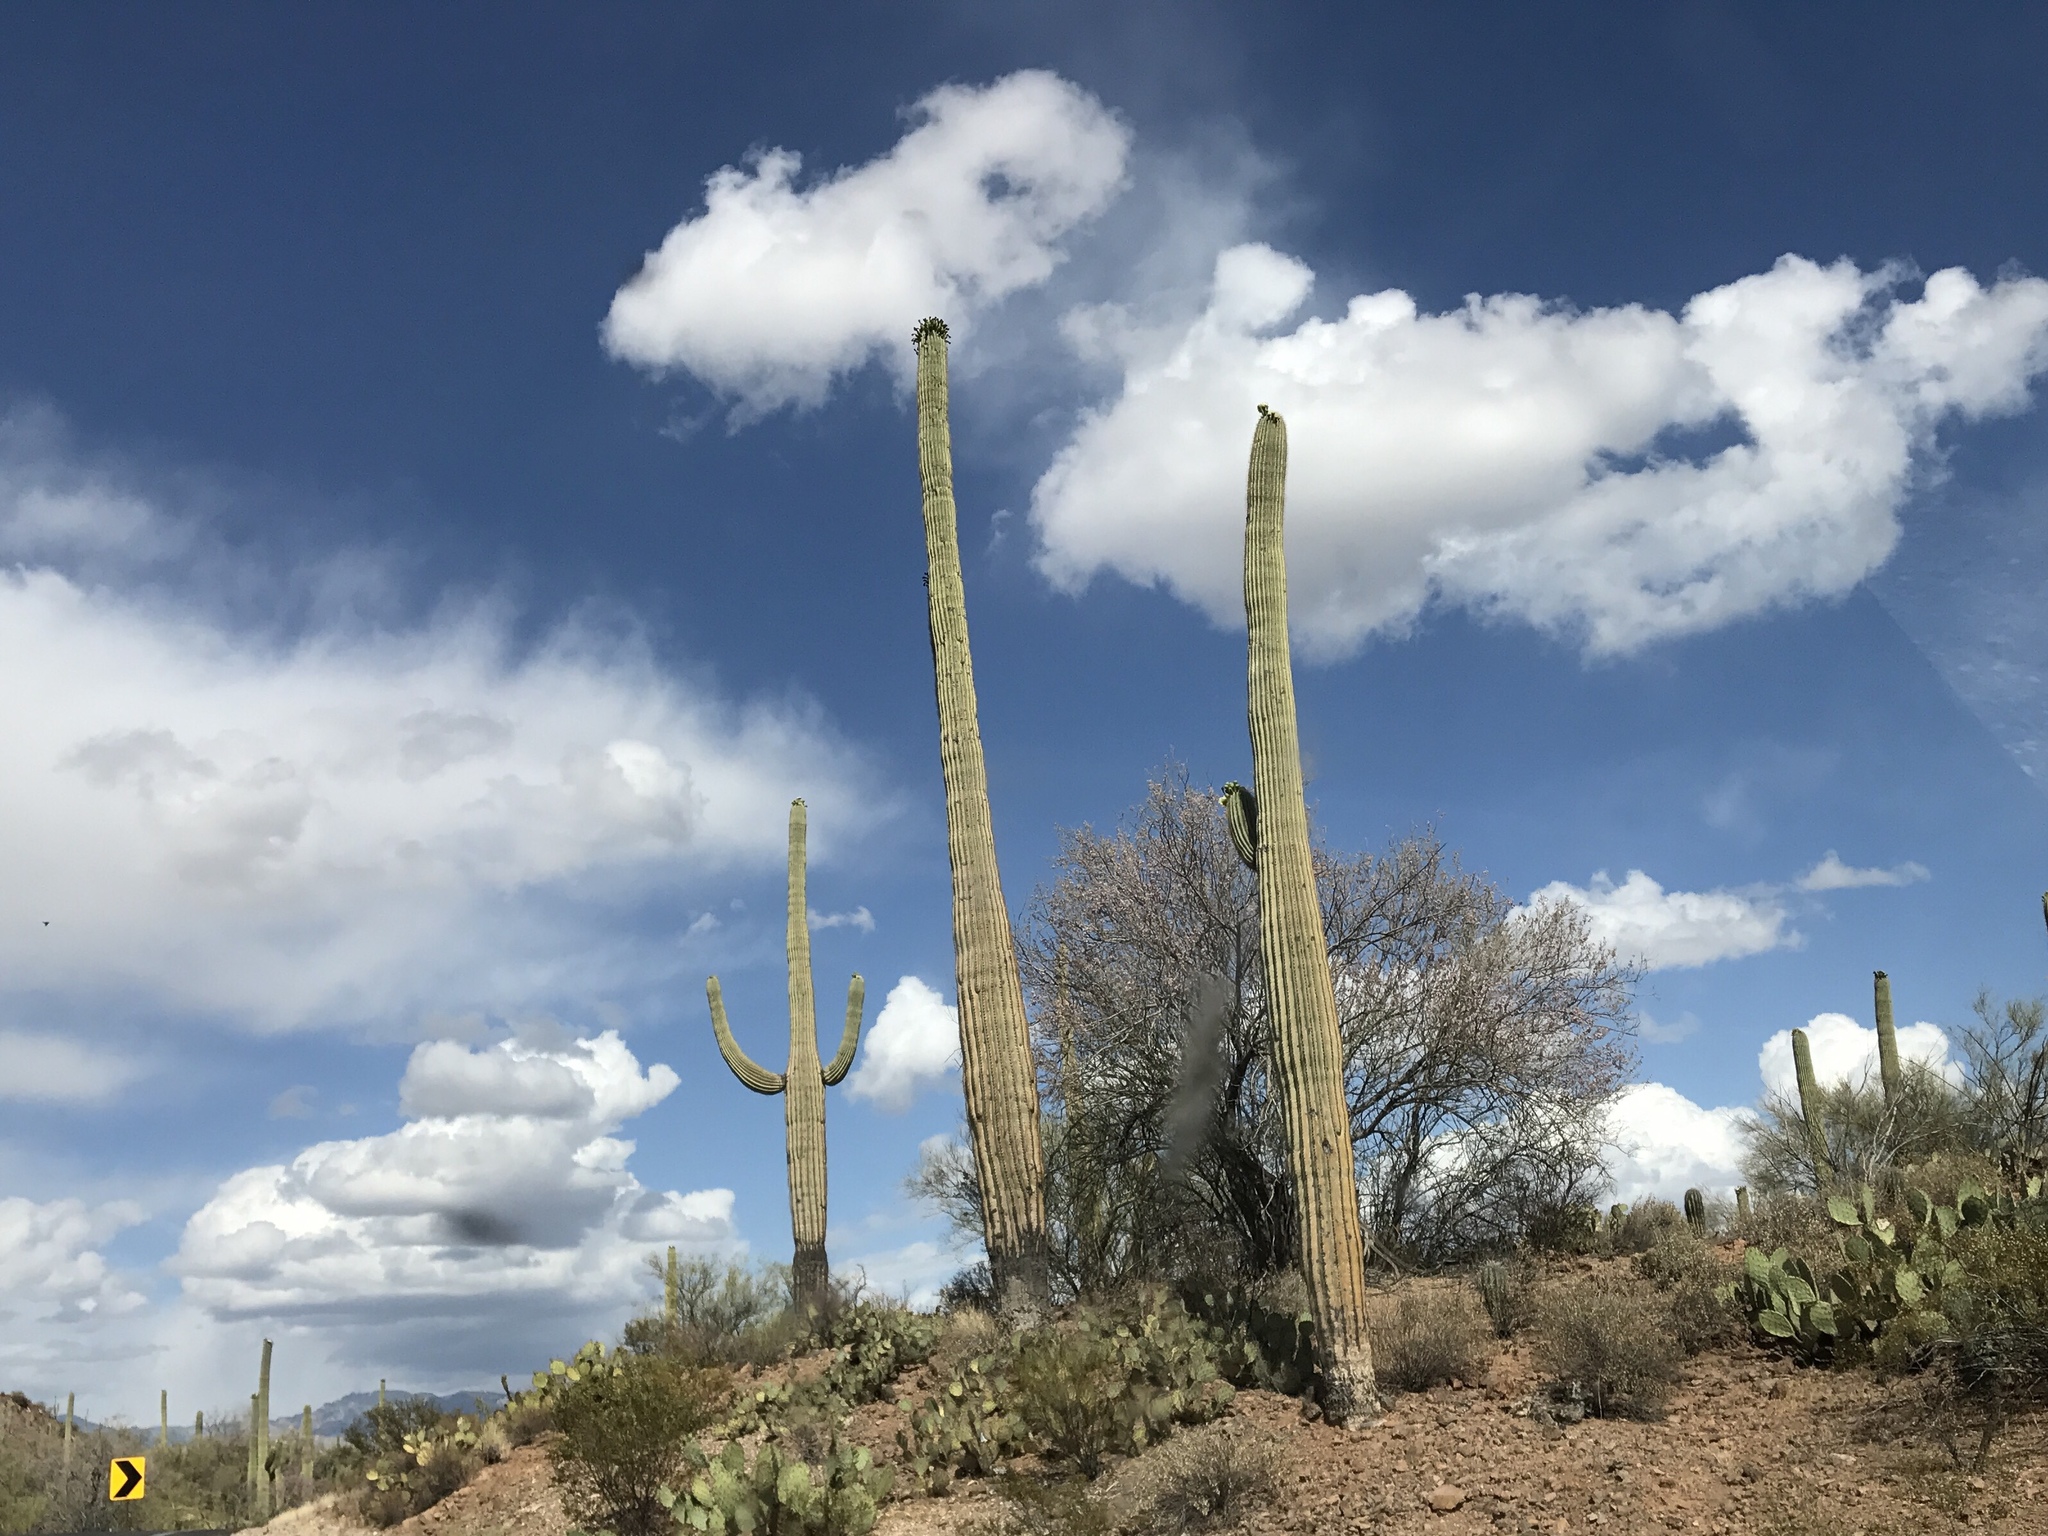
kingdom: Plantae
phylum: Tracheophyta
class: Magnoliopsida
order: Caryophyllales
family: Cactaceae
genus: Carnegiea
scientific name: Carnegiea gigantea
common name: Saguaro
